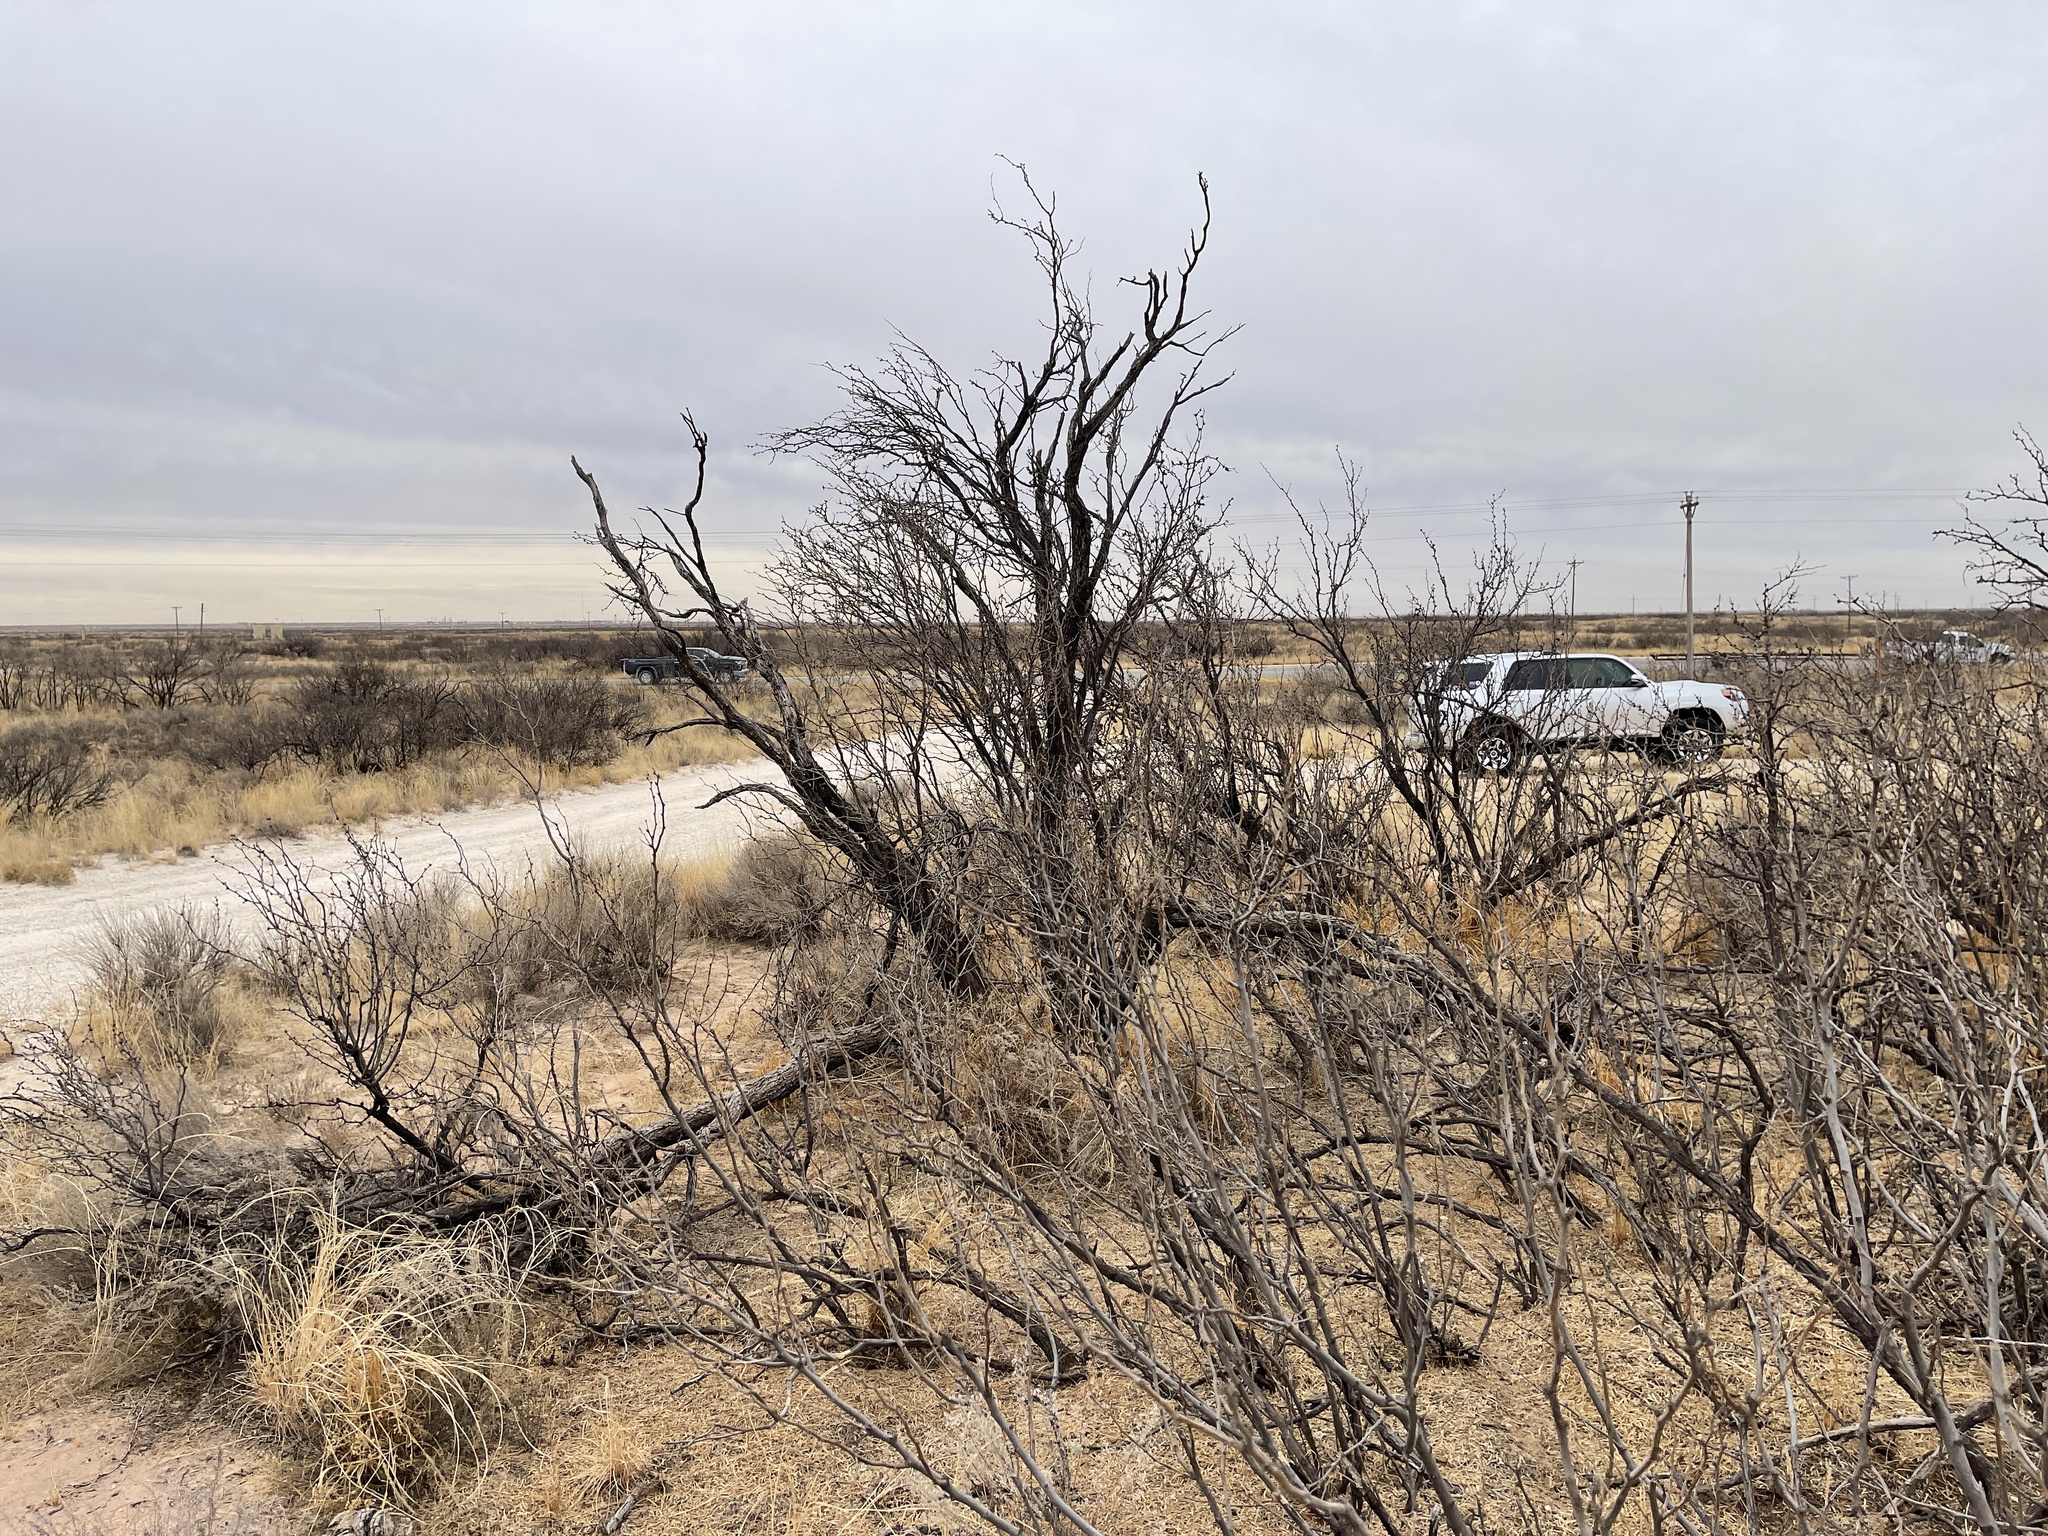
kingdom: Plantae
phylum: Tracheophyta
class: Magnoliopsida
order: Fabales
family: Fabaceae
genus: Prosopis
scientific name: Prosopis glandulosa
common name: Honey mesquite
